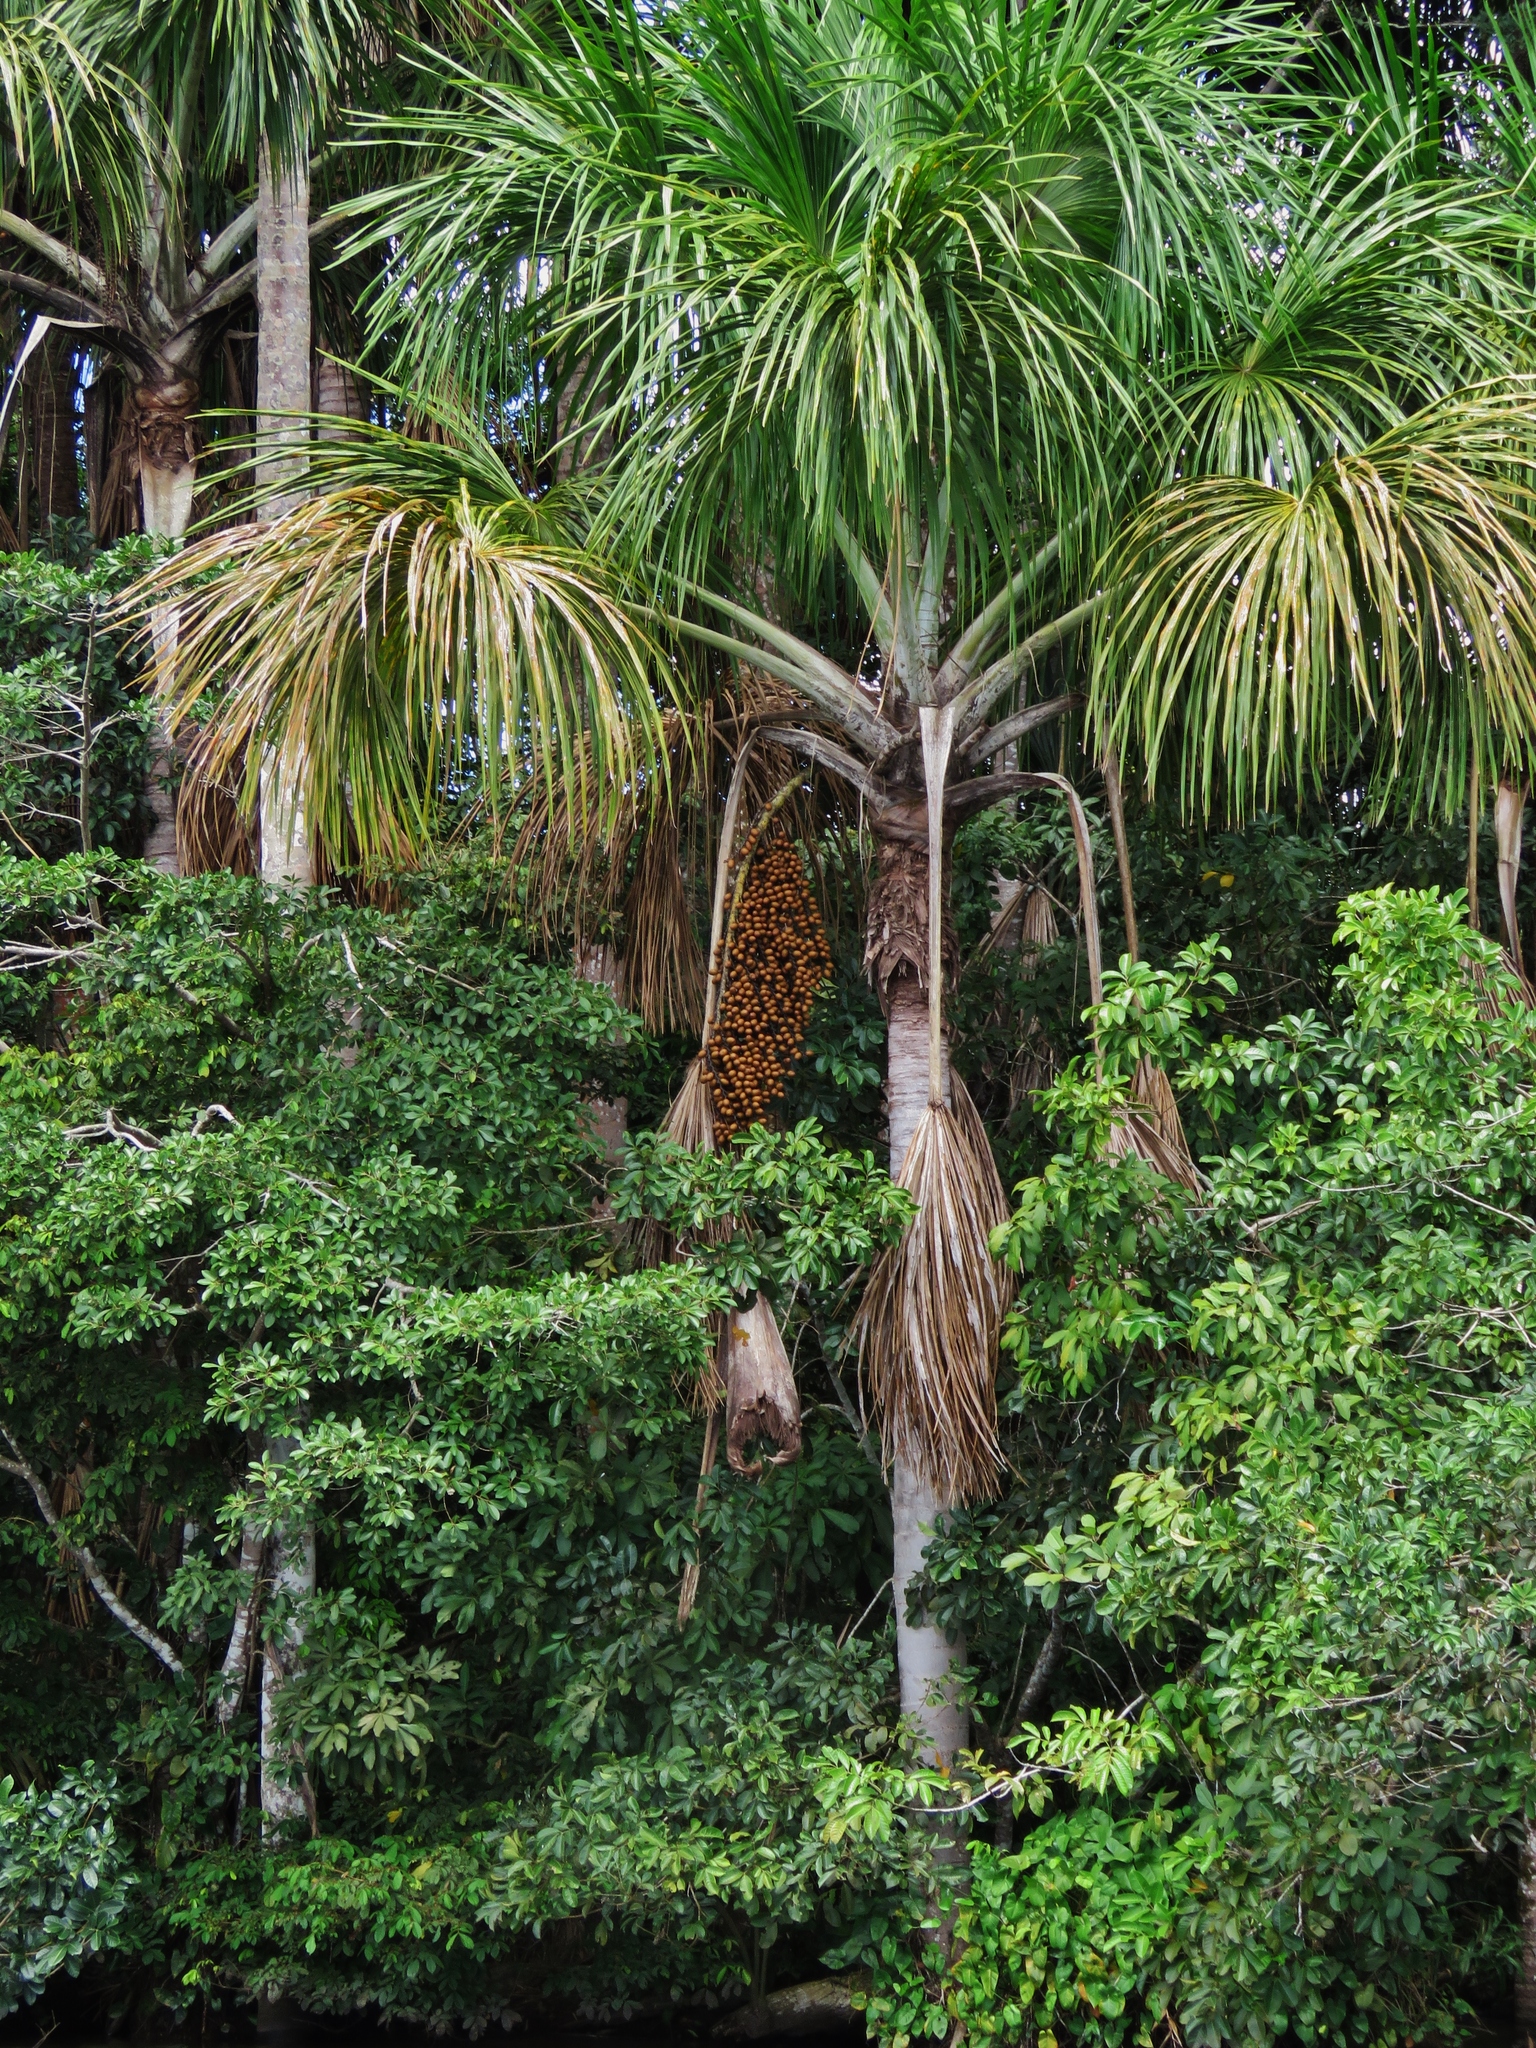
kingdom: Plantae
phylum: Tracheophyta
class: Liliopsida
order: Arecales
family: Arecaceae
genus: Mauritia
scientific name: Mauritia flexuosa
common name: Tree-of-life
